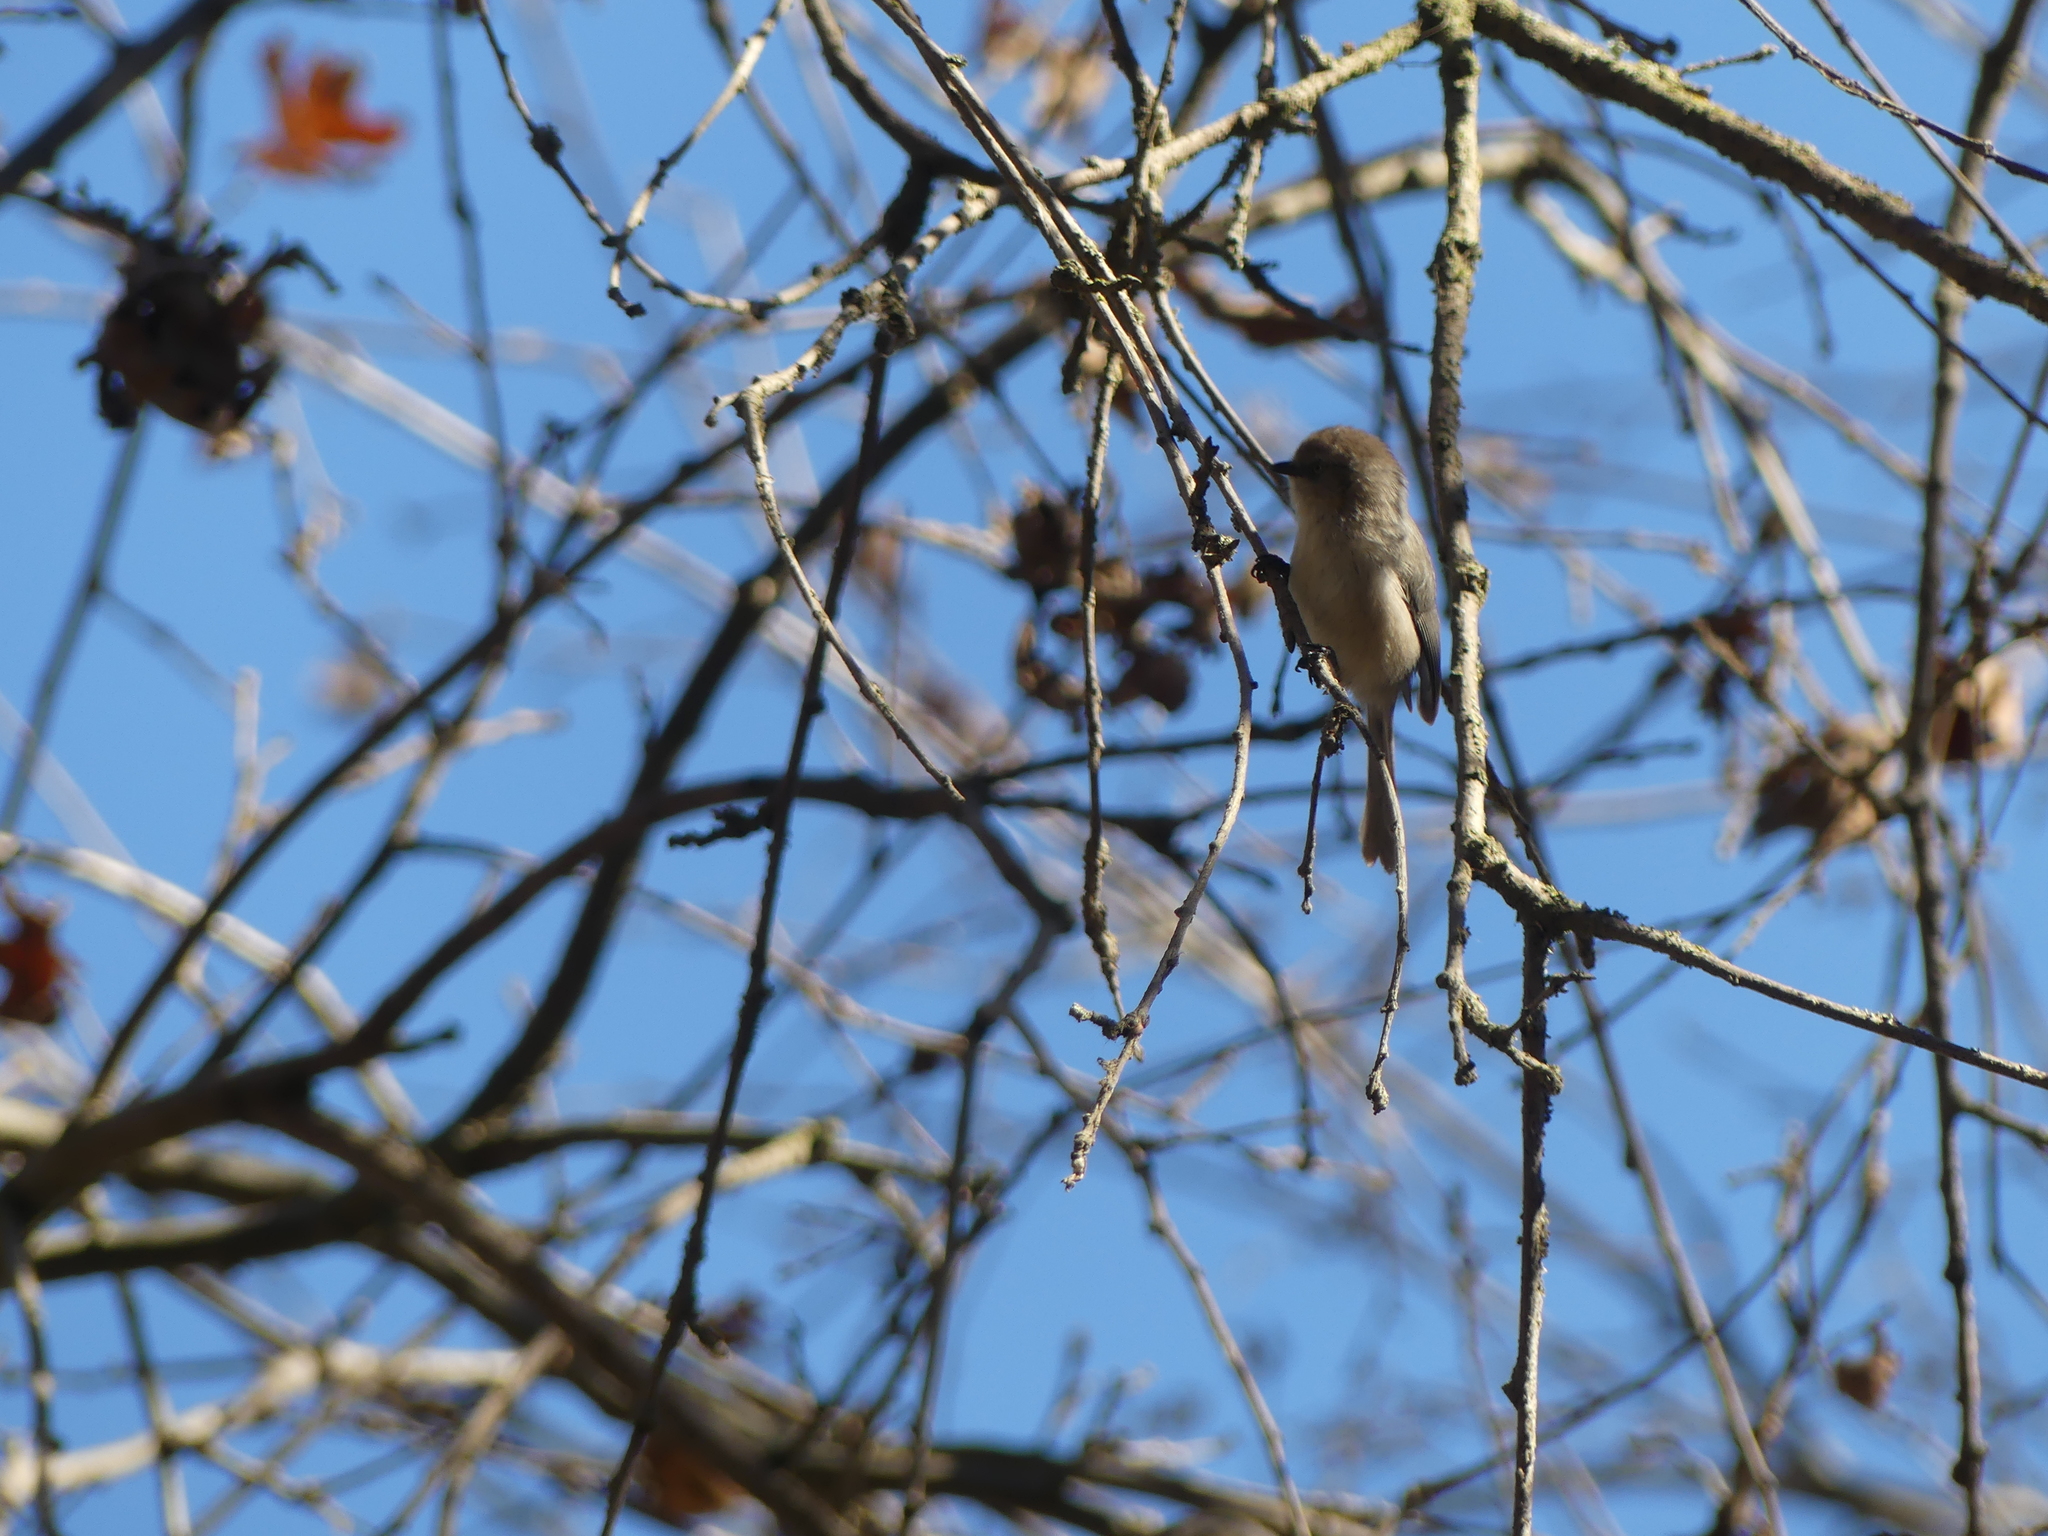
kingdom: Animalia
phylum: Chordata
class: Aves
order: Passeriformes
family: Aegithalidae
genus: Psaltriparus
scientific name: Psaltriparus minimus
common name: American bushtit
